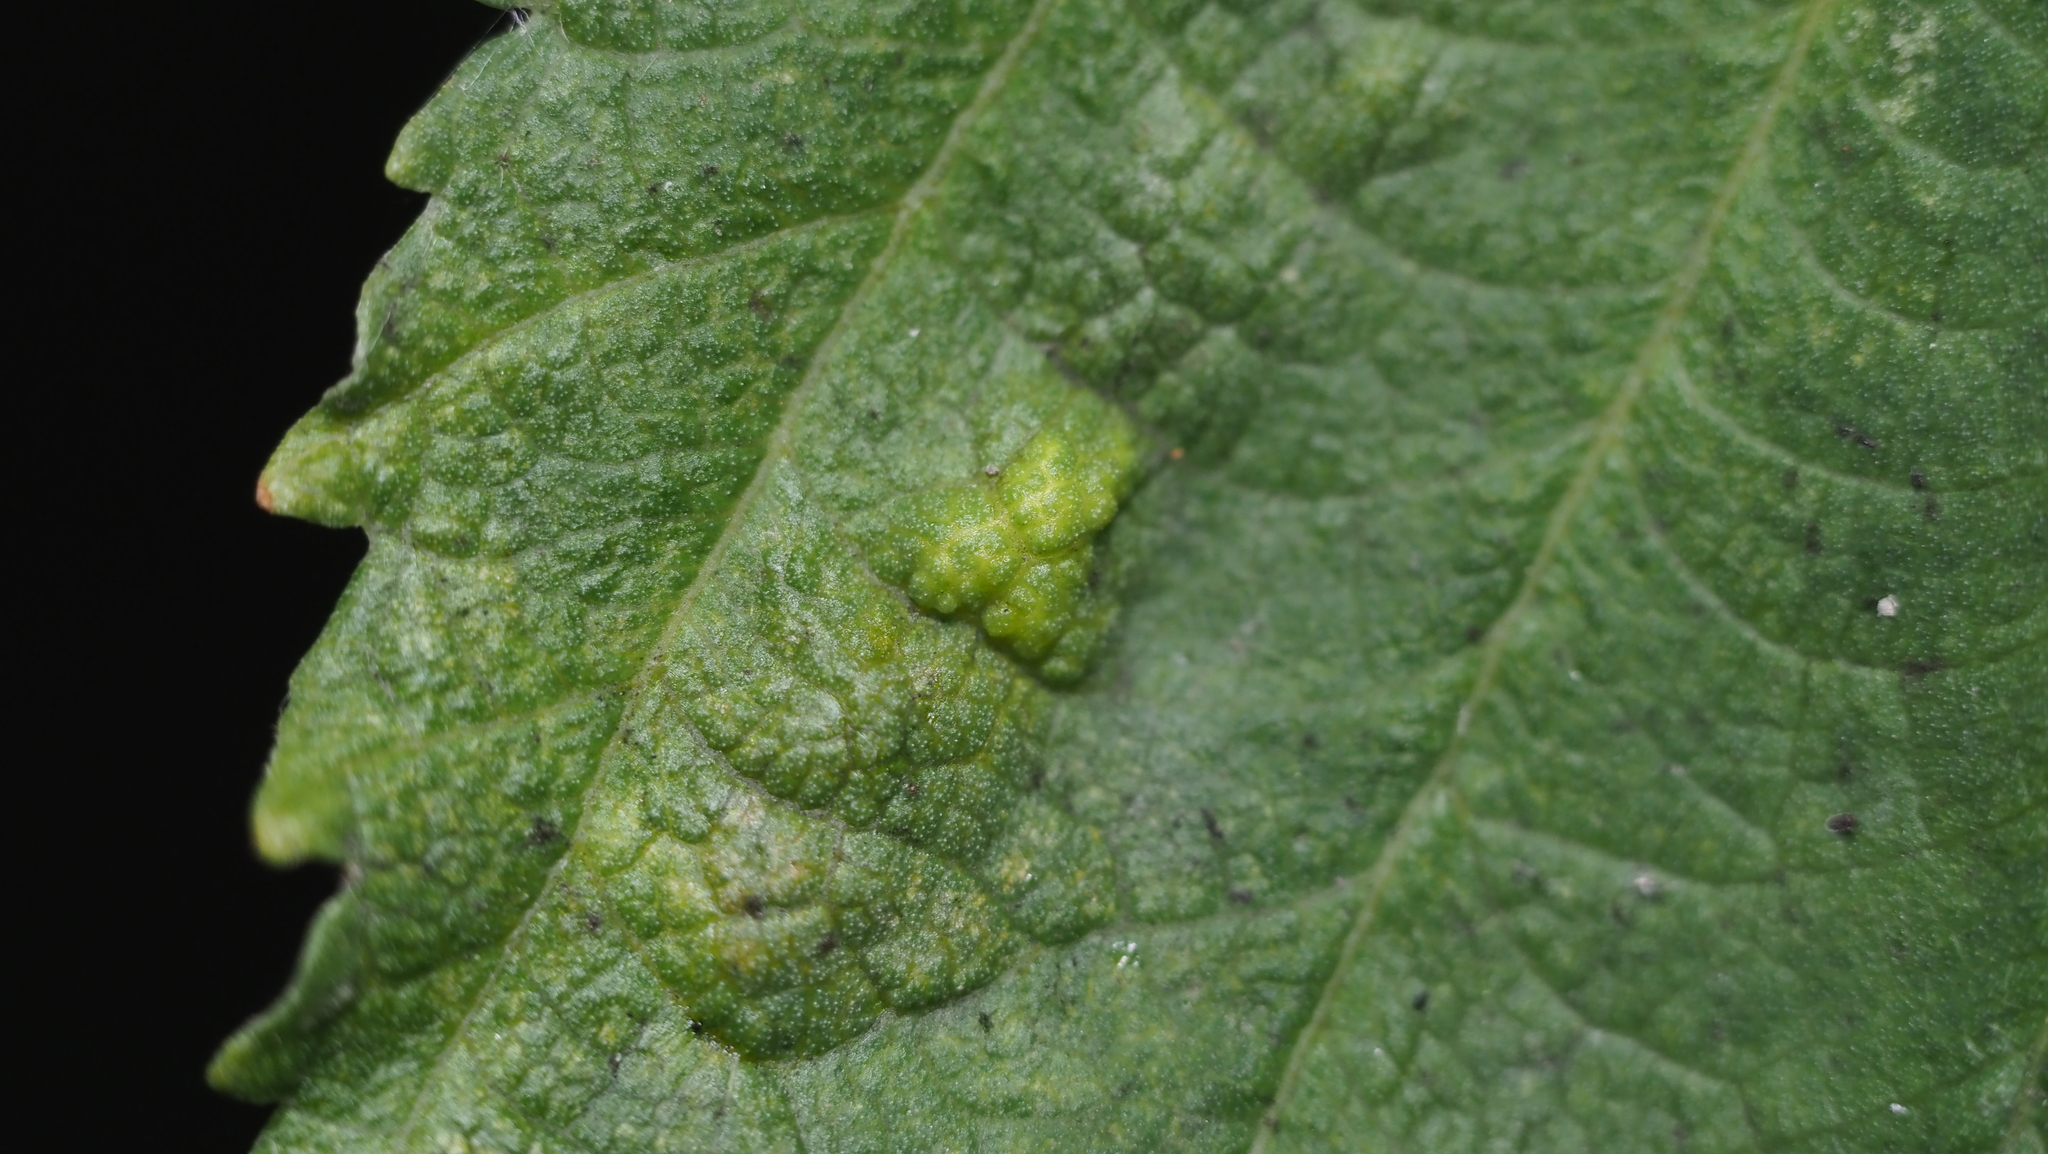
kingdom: Animalia
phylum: Arthropoda
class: Insecta
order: Hemiptera
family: Aphididae
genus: Hamamelistes
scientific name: Hamamelistes spinosus
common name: Witch hazel gall aphid
